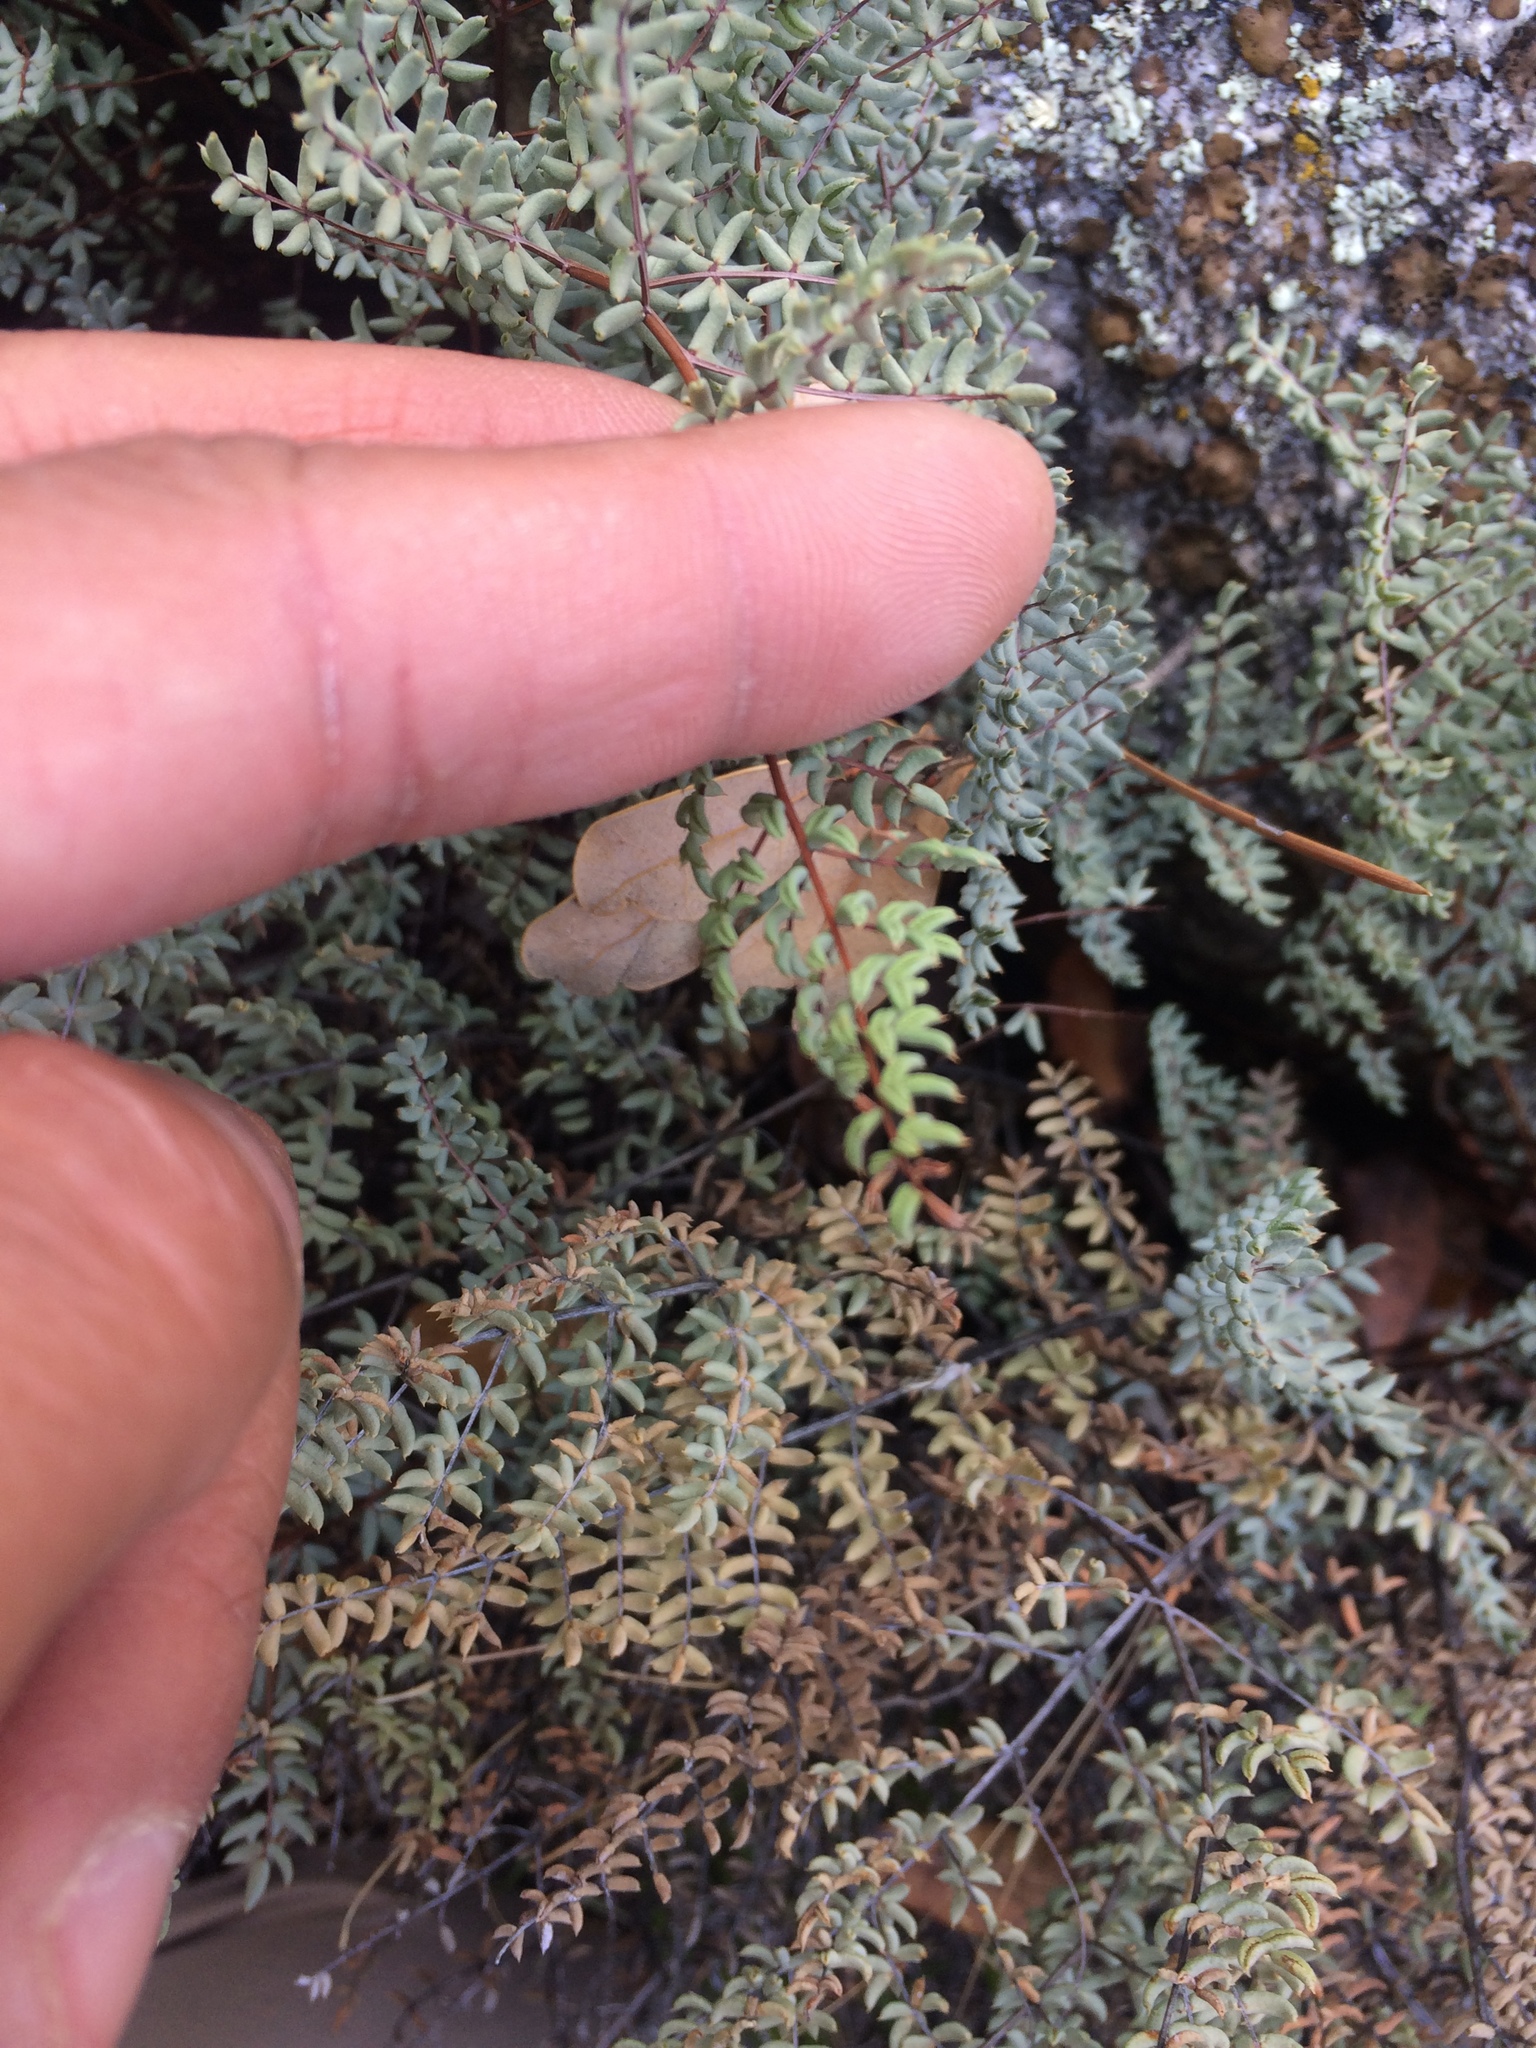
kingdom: Plantae
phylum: Tracheophyta
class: Polypodiopsida
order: Polypodiales
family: Pteridaceae
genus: Pellaea
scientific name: Pellaea mucronata
